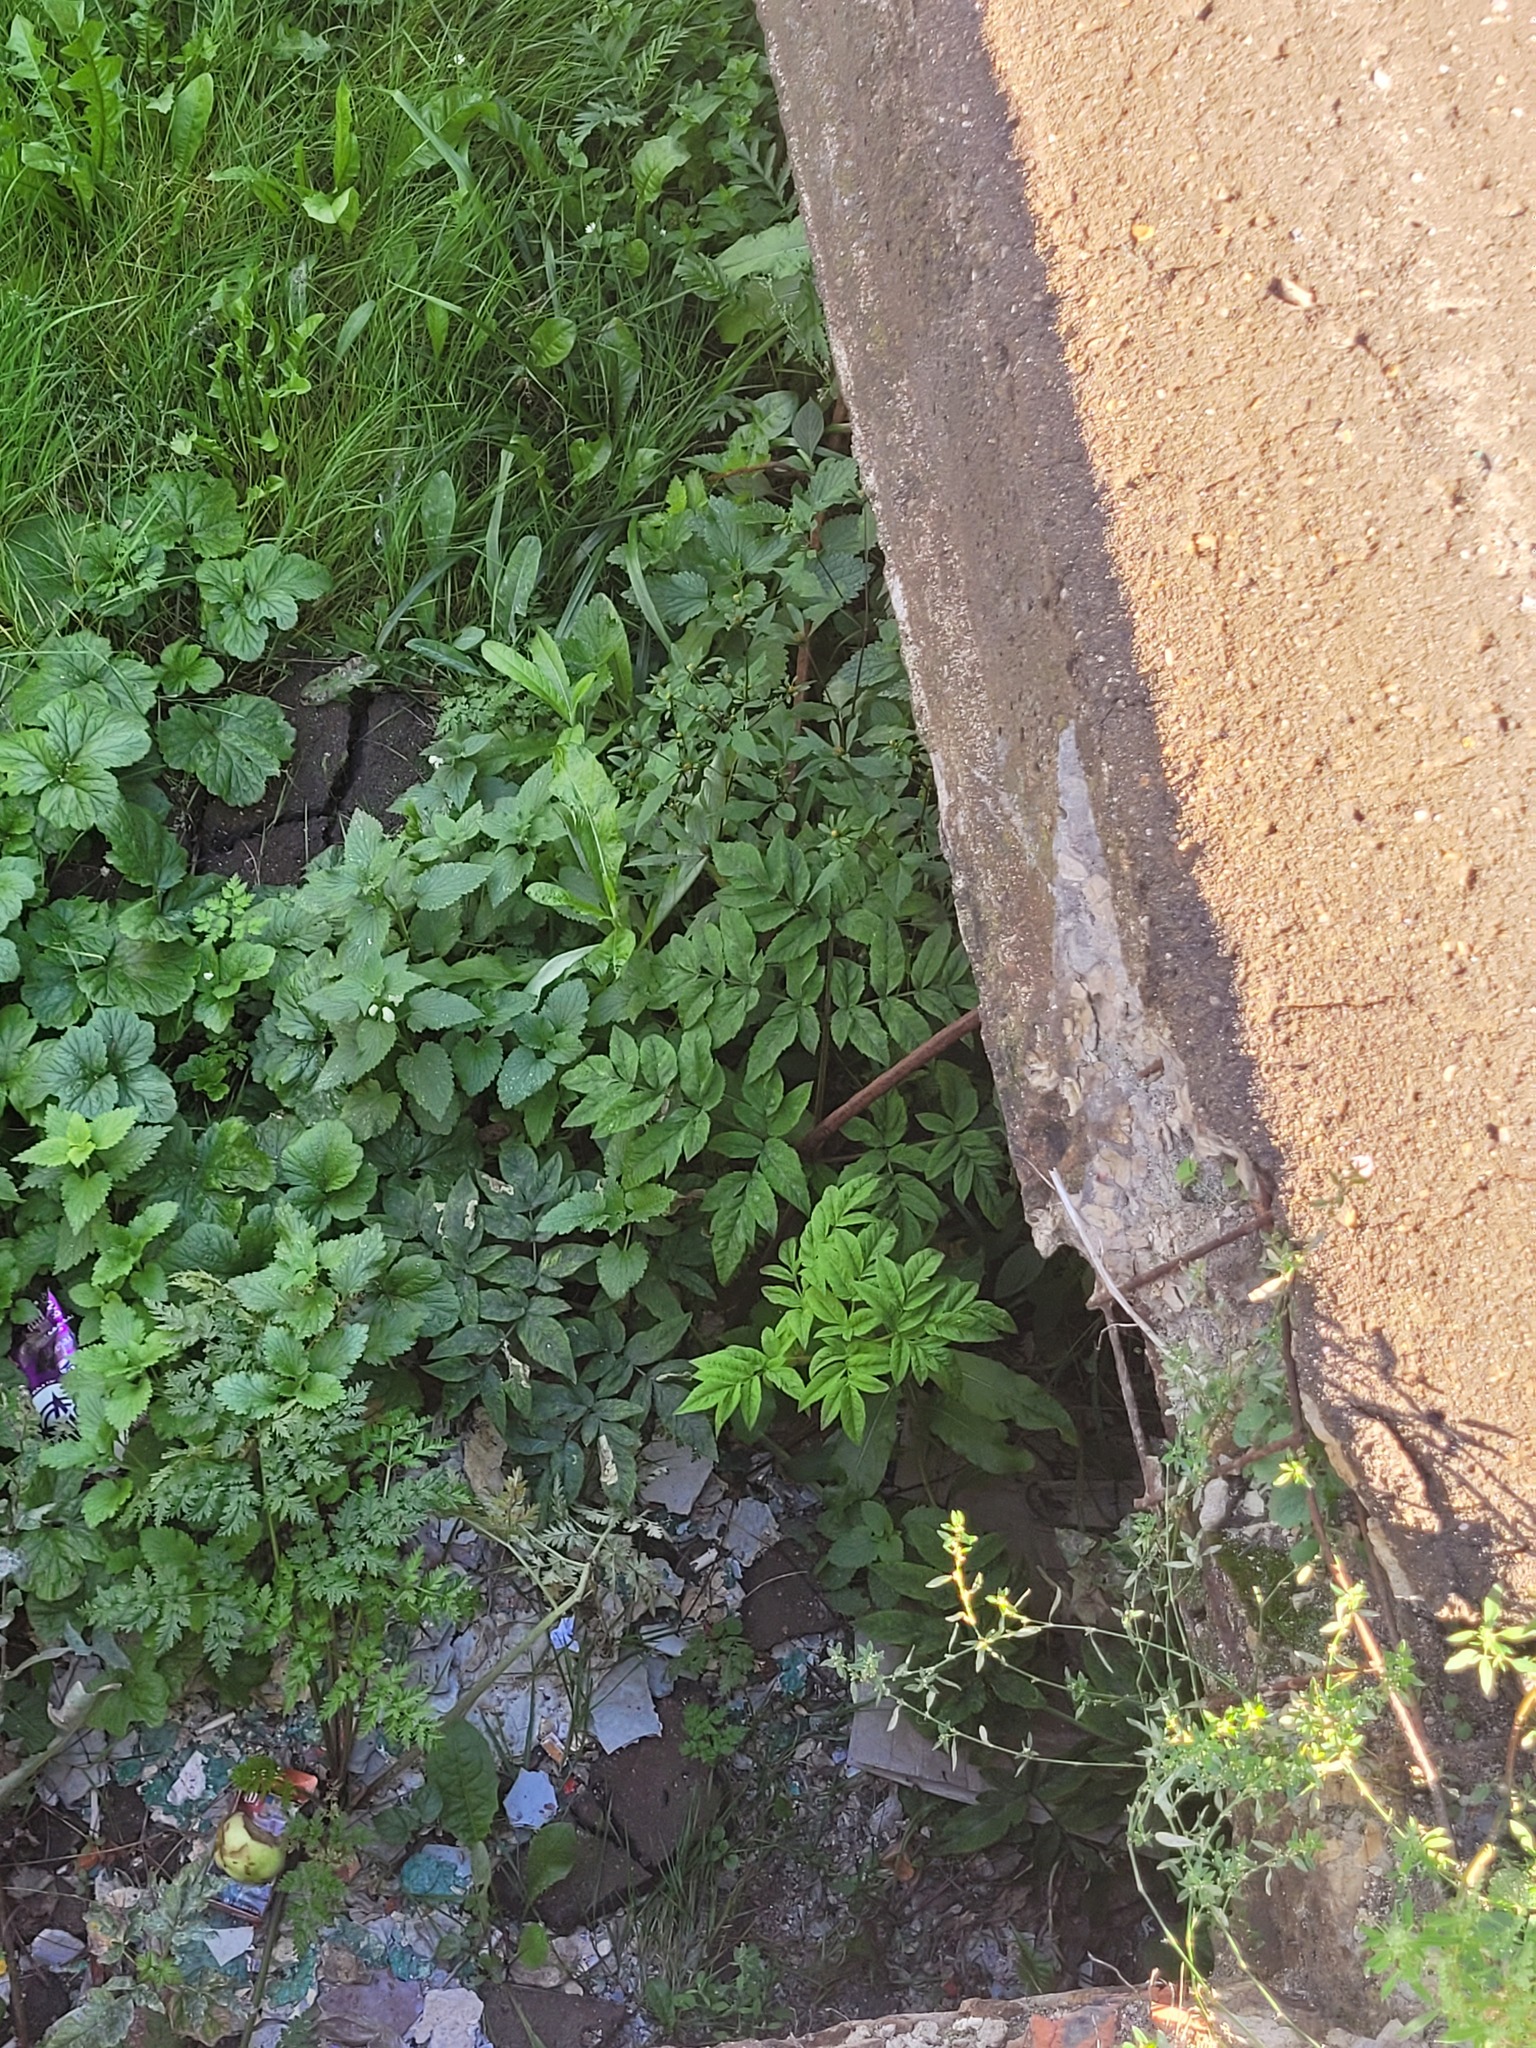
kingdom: Plantae
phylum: Tracheophyta
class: Magnoliopsida
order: Apiales
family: Apiaceae
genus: Angelica
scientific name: Angelica sylvestris
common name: Wild angelica
